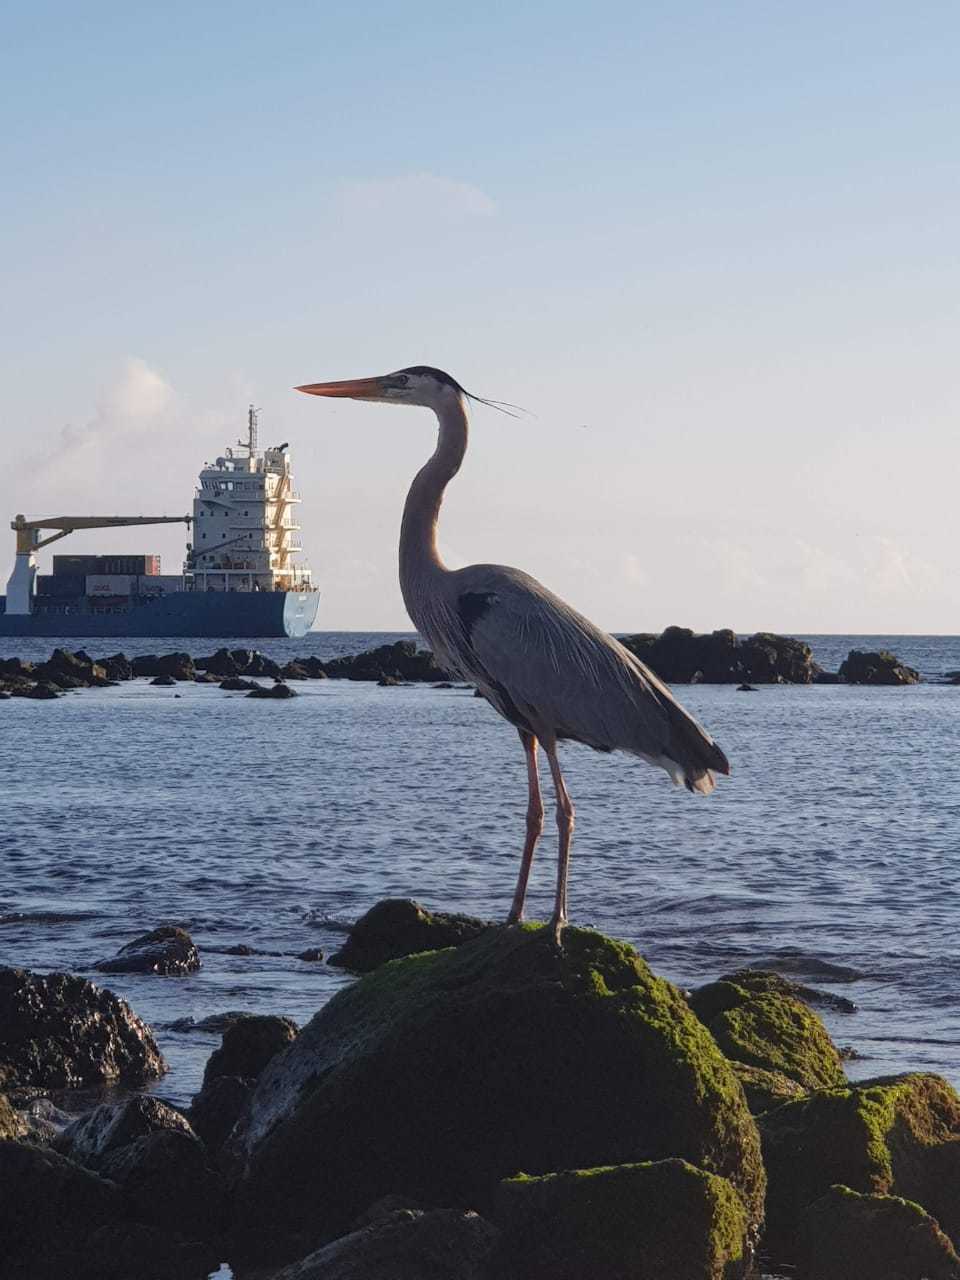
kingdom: Animalia
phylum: Chordata
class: Aves
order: Pelecaniformes
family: Ardeidae
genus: Ardea
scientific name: Ardea herodias
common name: Great blue heron
